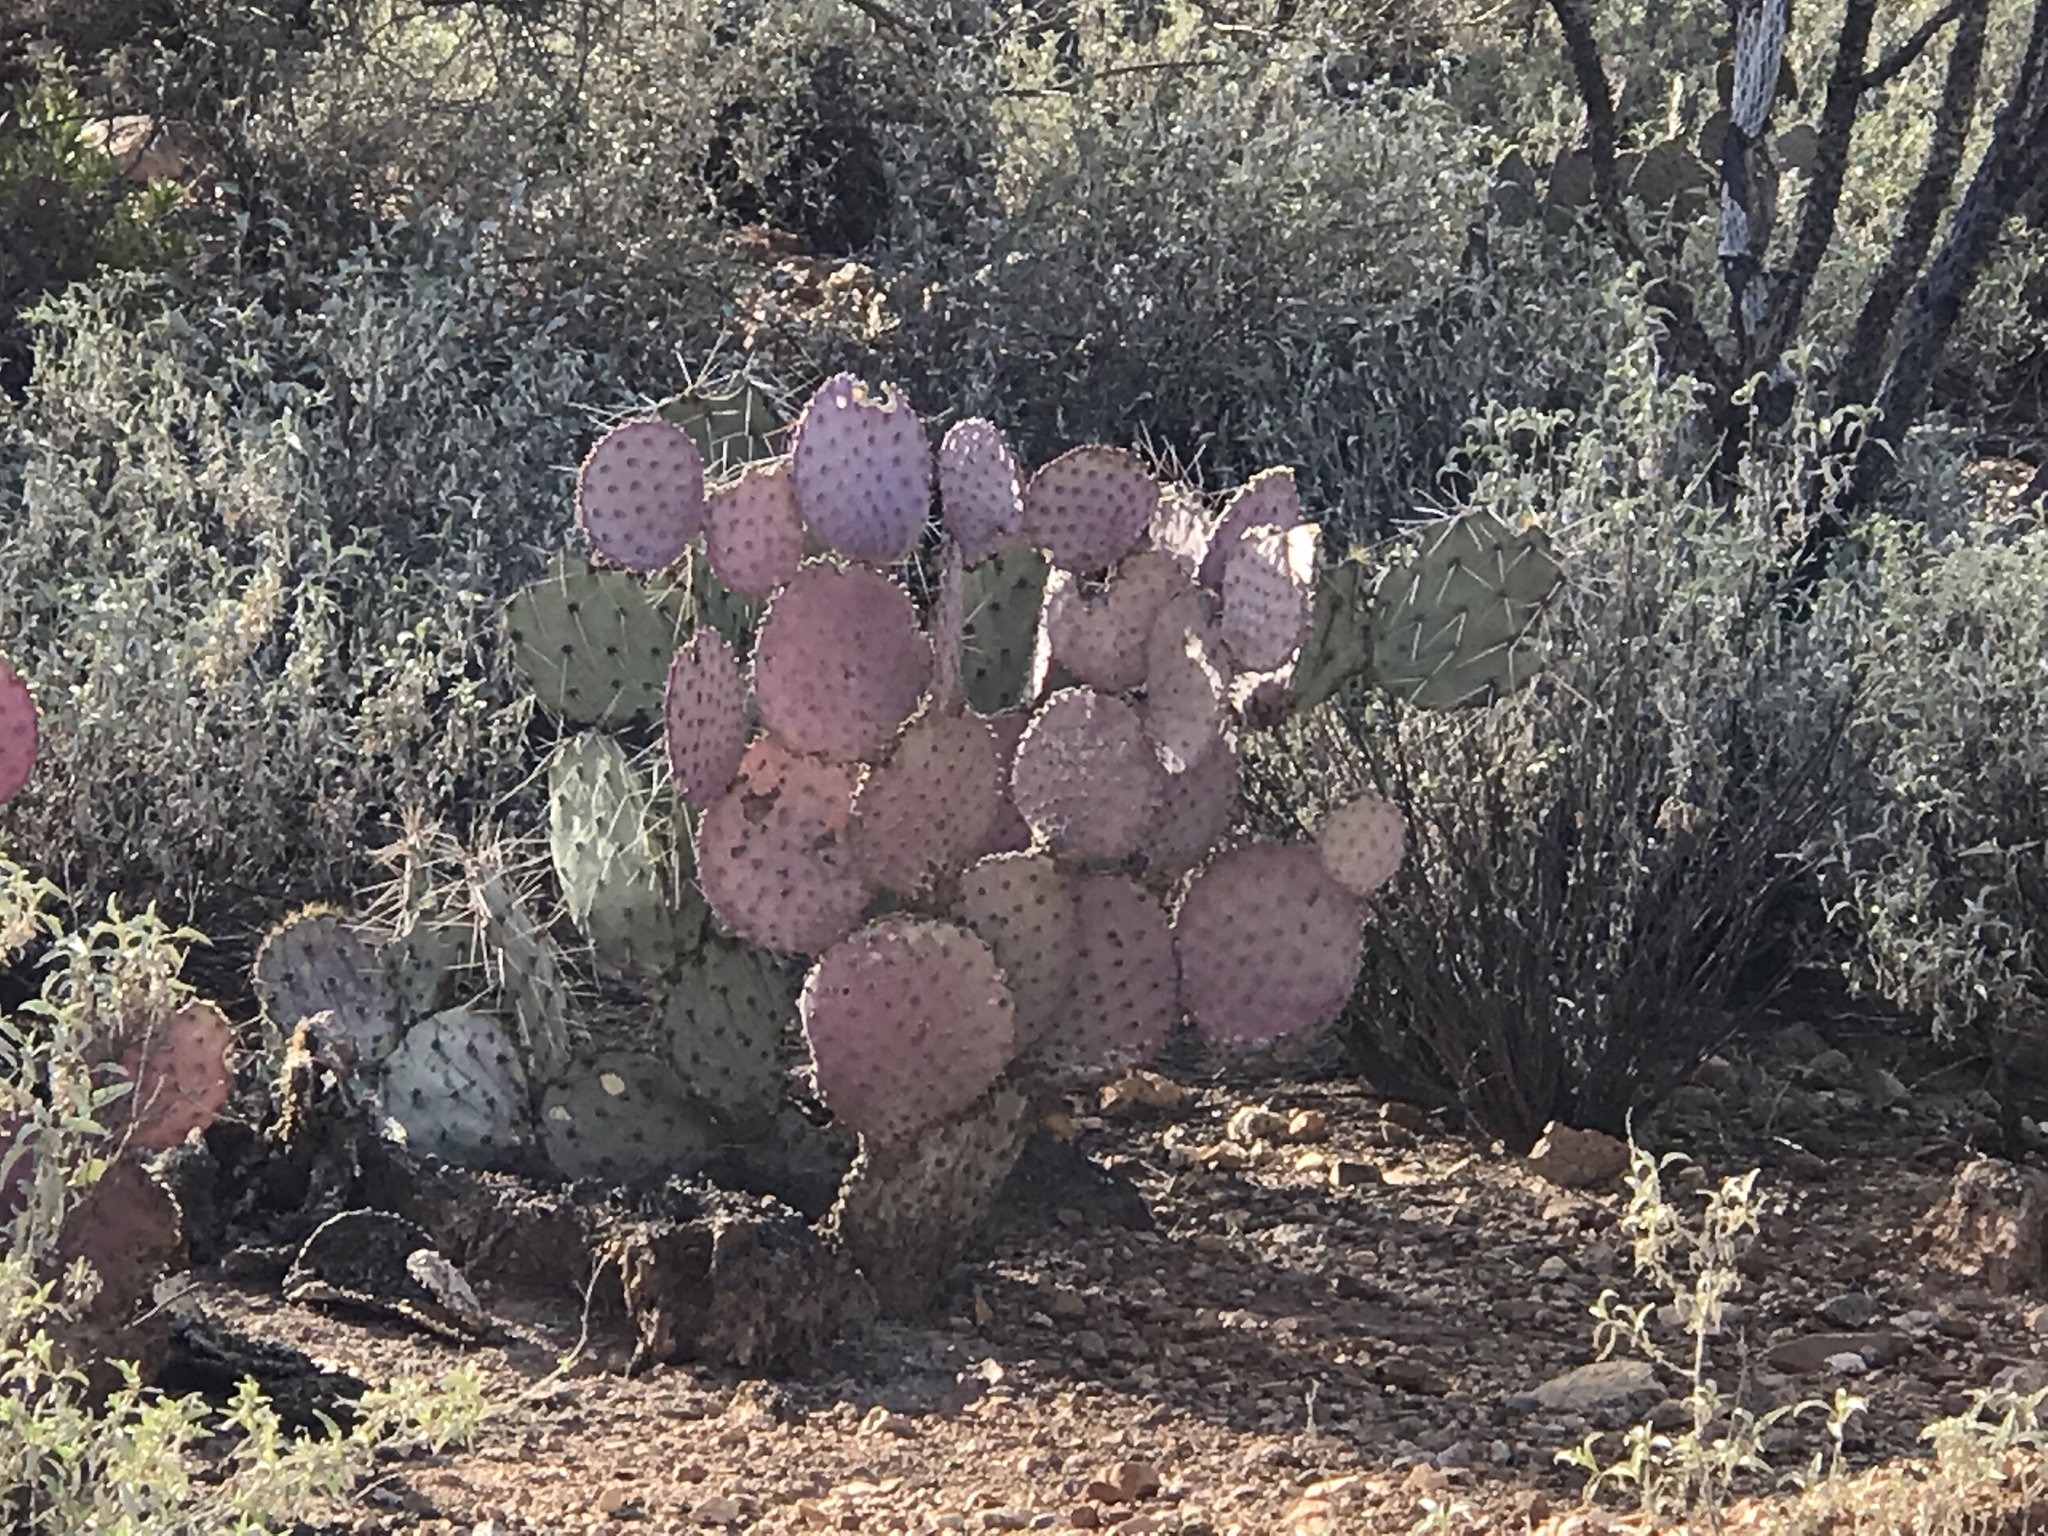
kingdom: Plantae
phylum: Tracheophyta
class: Magnoliopsida
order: Caryophyllales
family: Cactaceae
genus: Opuntia
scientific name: Opuntia gosseliniana
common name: Violet prickly-pear
